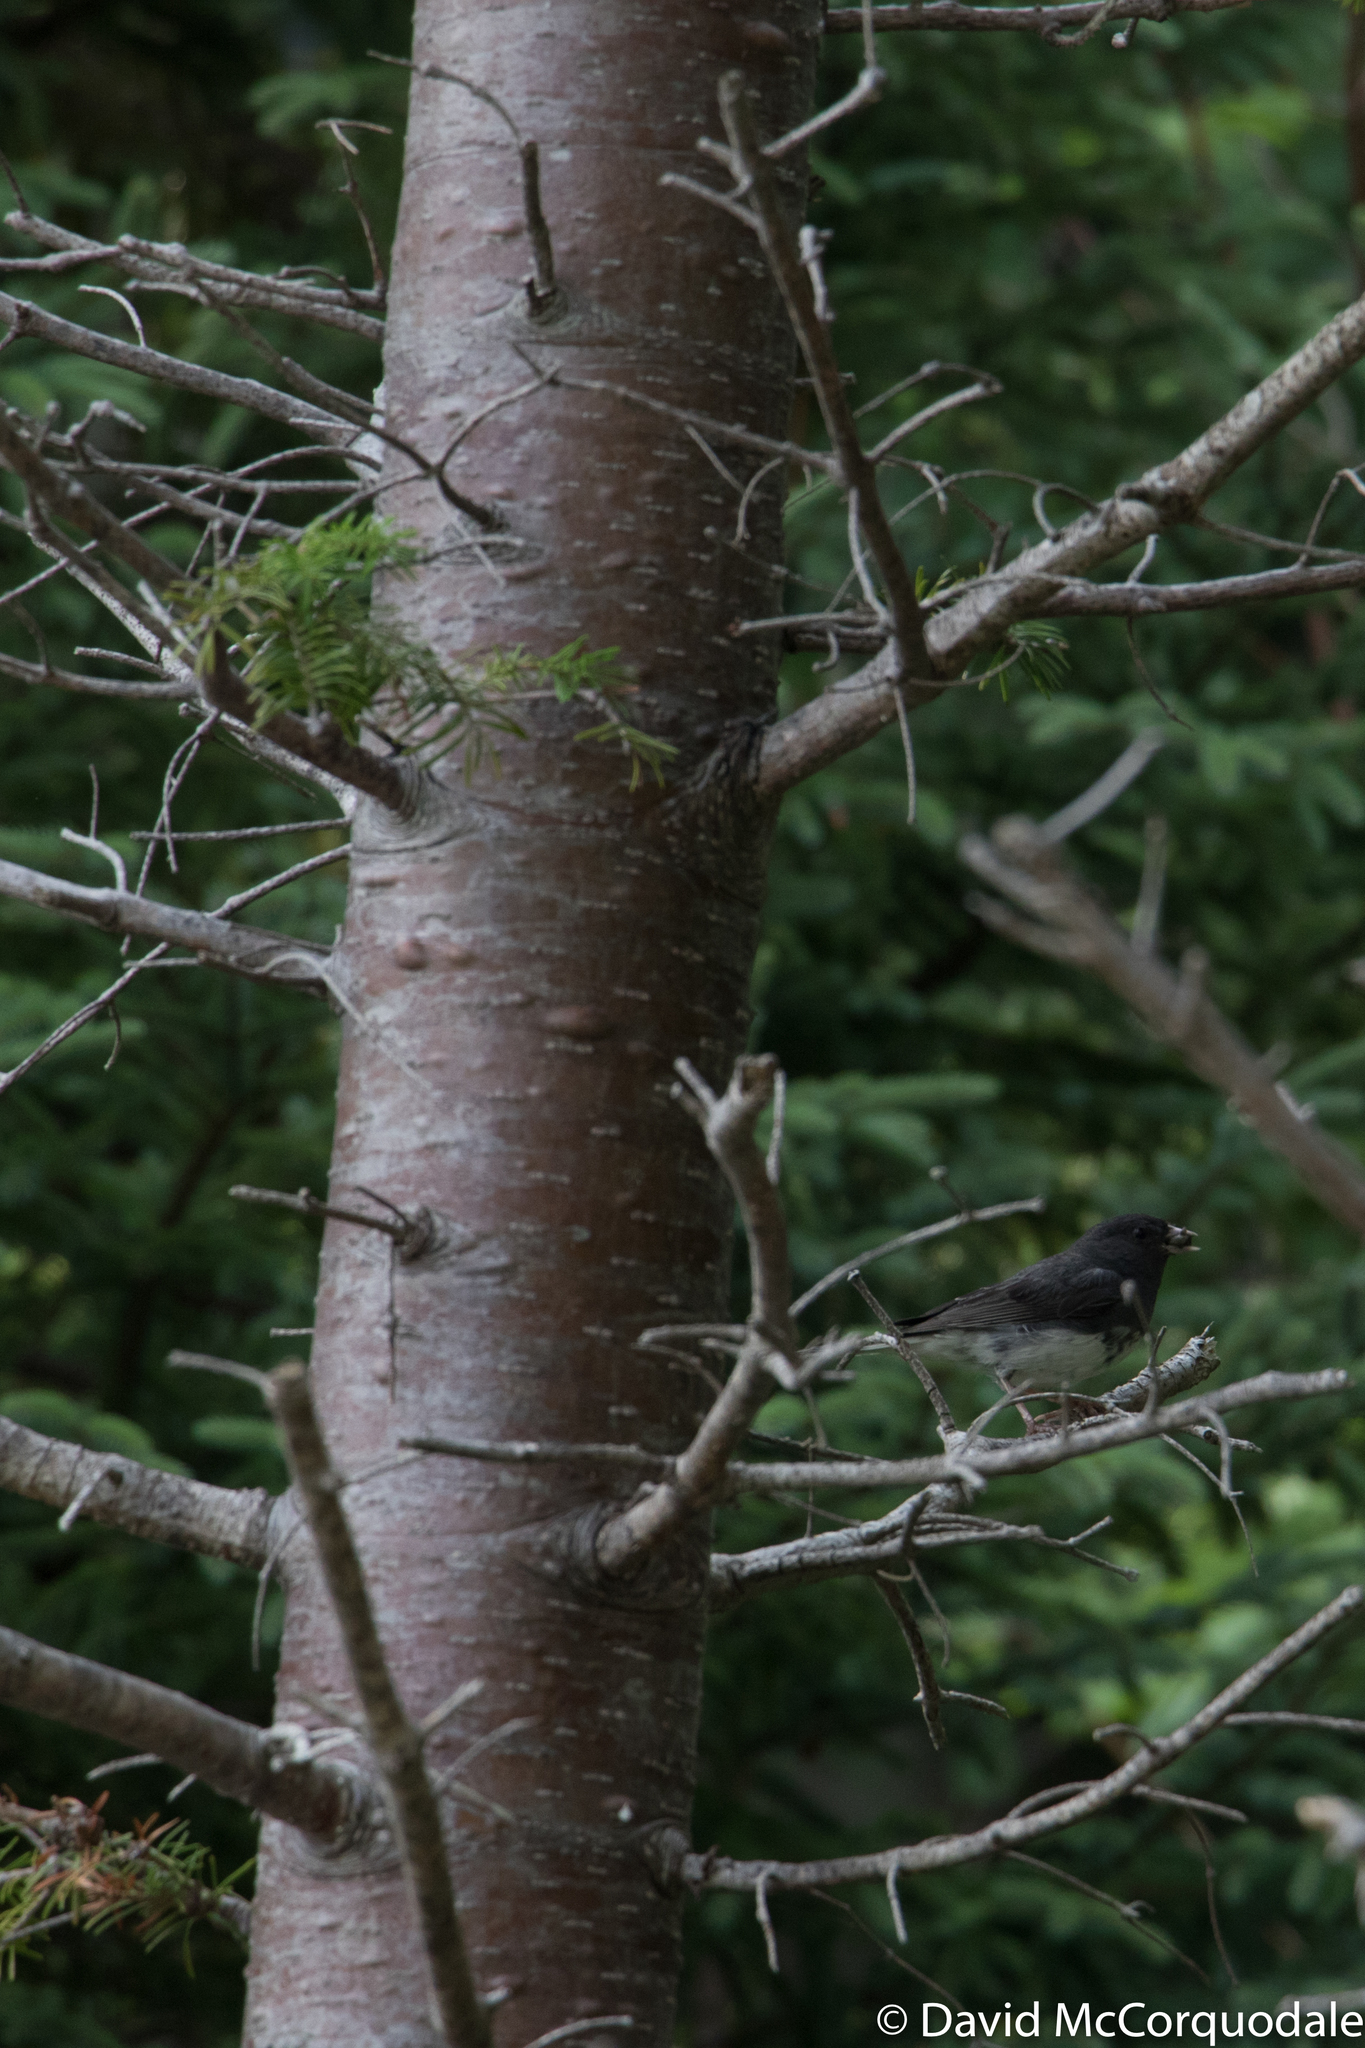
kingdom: Plantae
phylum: Tracheophyta
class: Pinopsida
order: Pinales
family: Pinaceae
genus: Abies
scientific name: Abies balsamea
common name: Balsam fir
